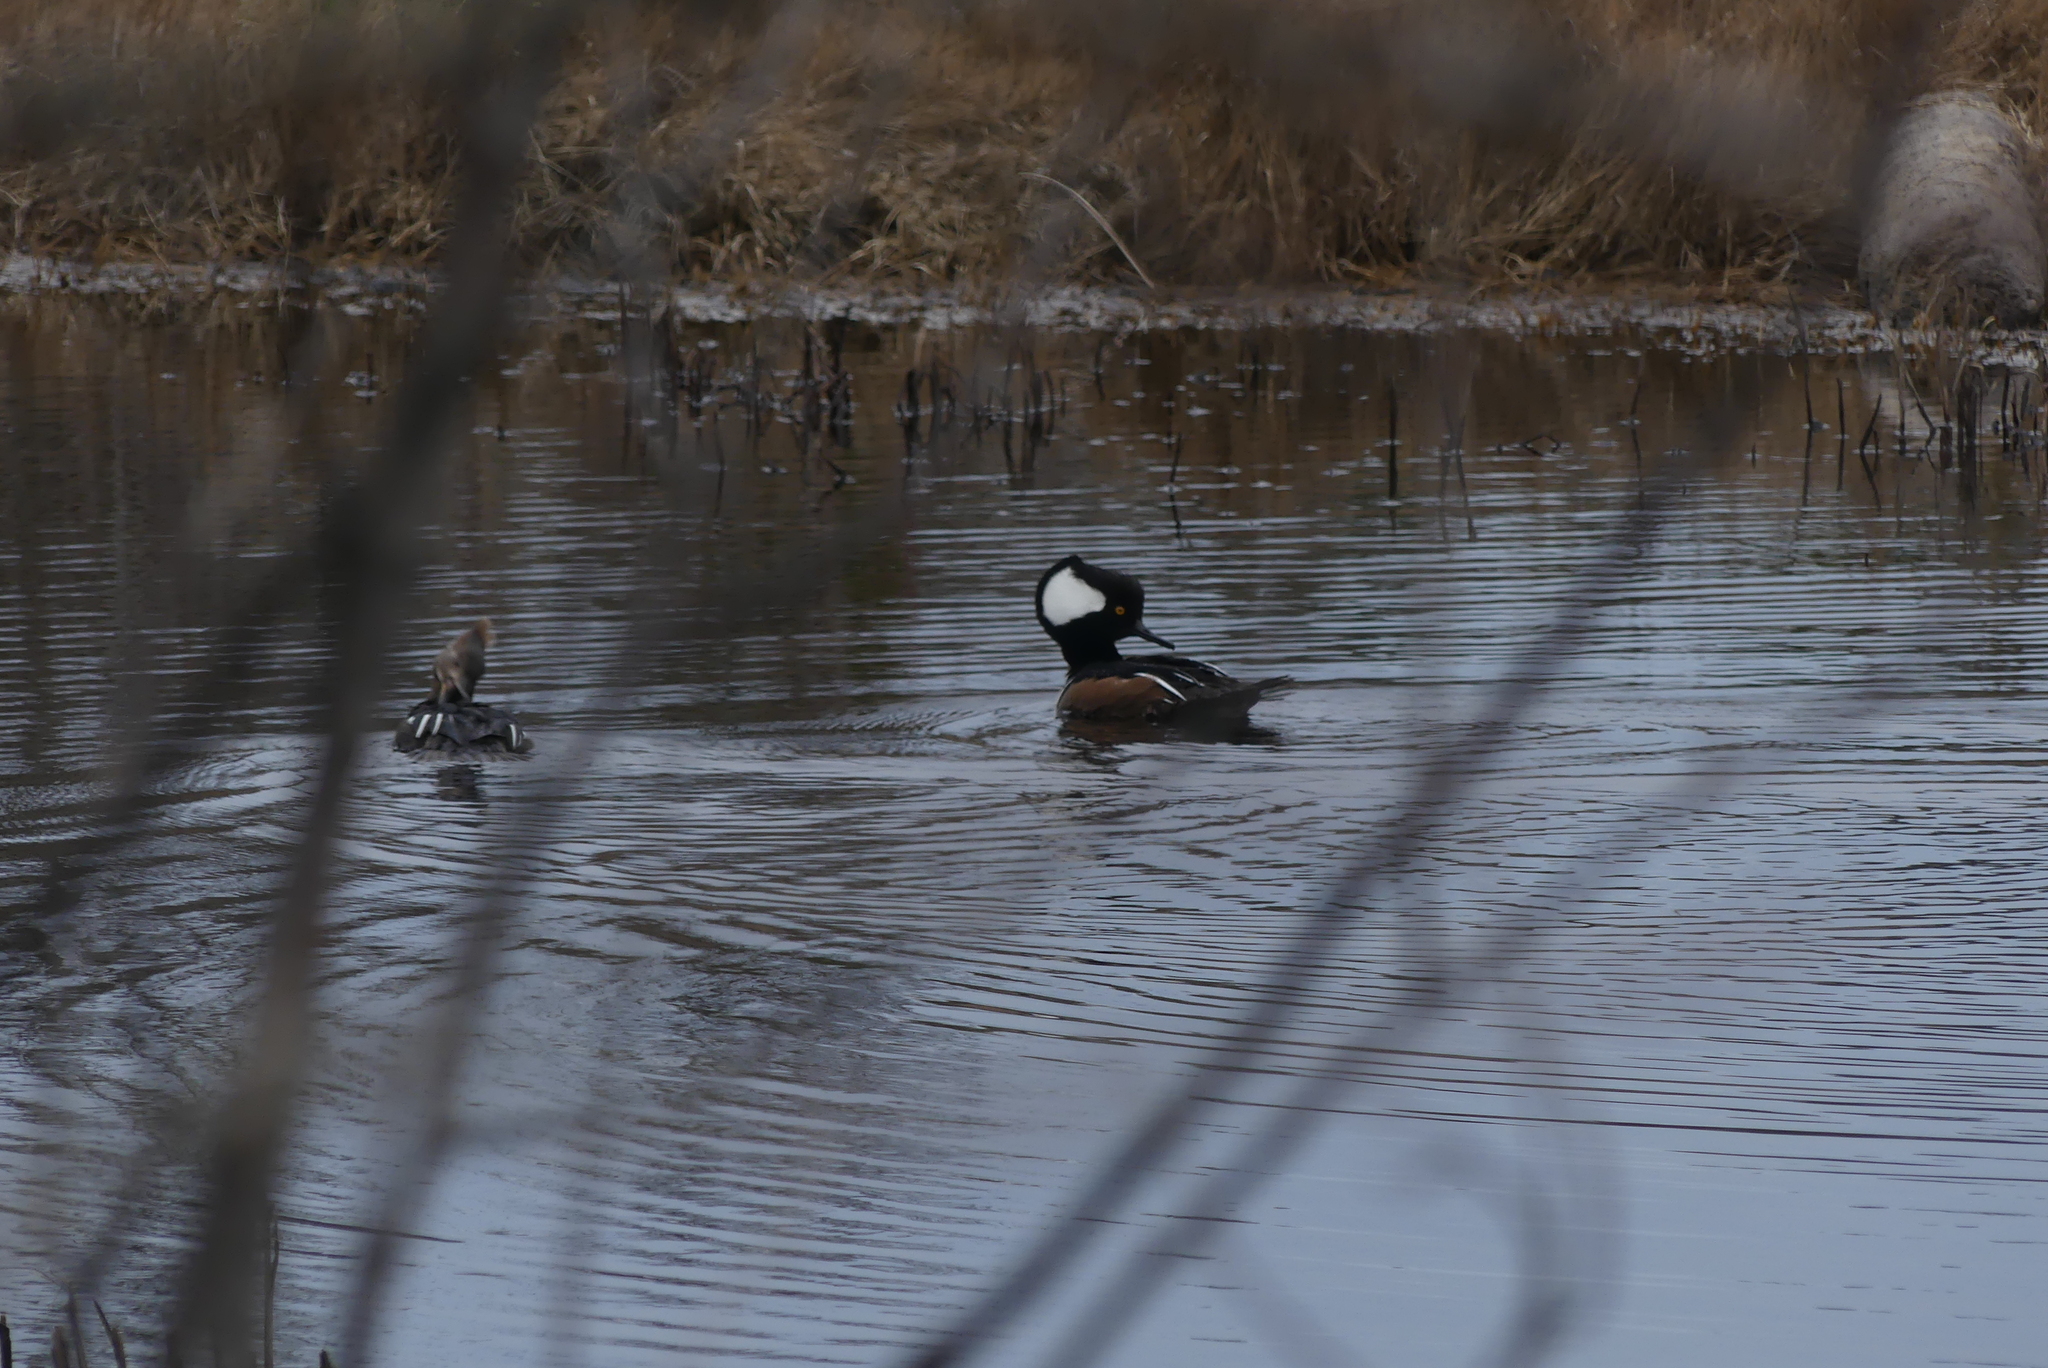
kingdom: Animalia
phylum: Chordata
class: Aves
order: Anseriformes
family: Anatidae
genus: Lophodytes
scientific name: Lophodytes cucullatus
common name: Hooded merganser
